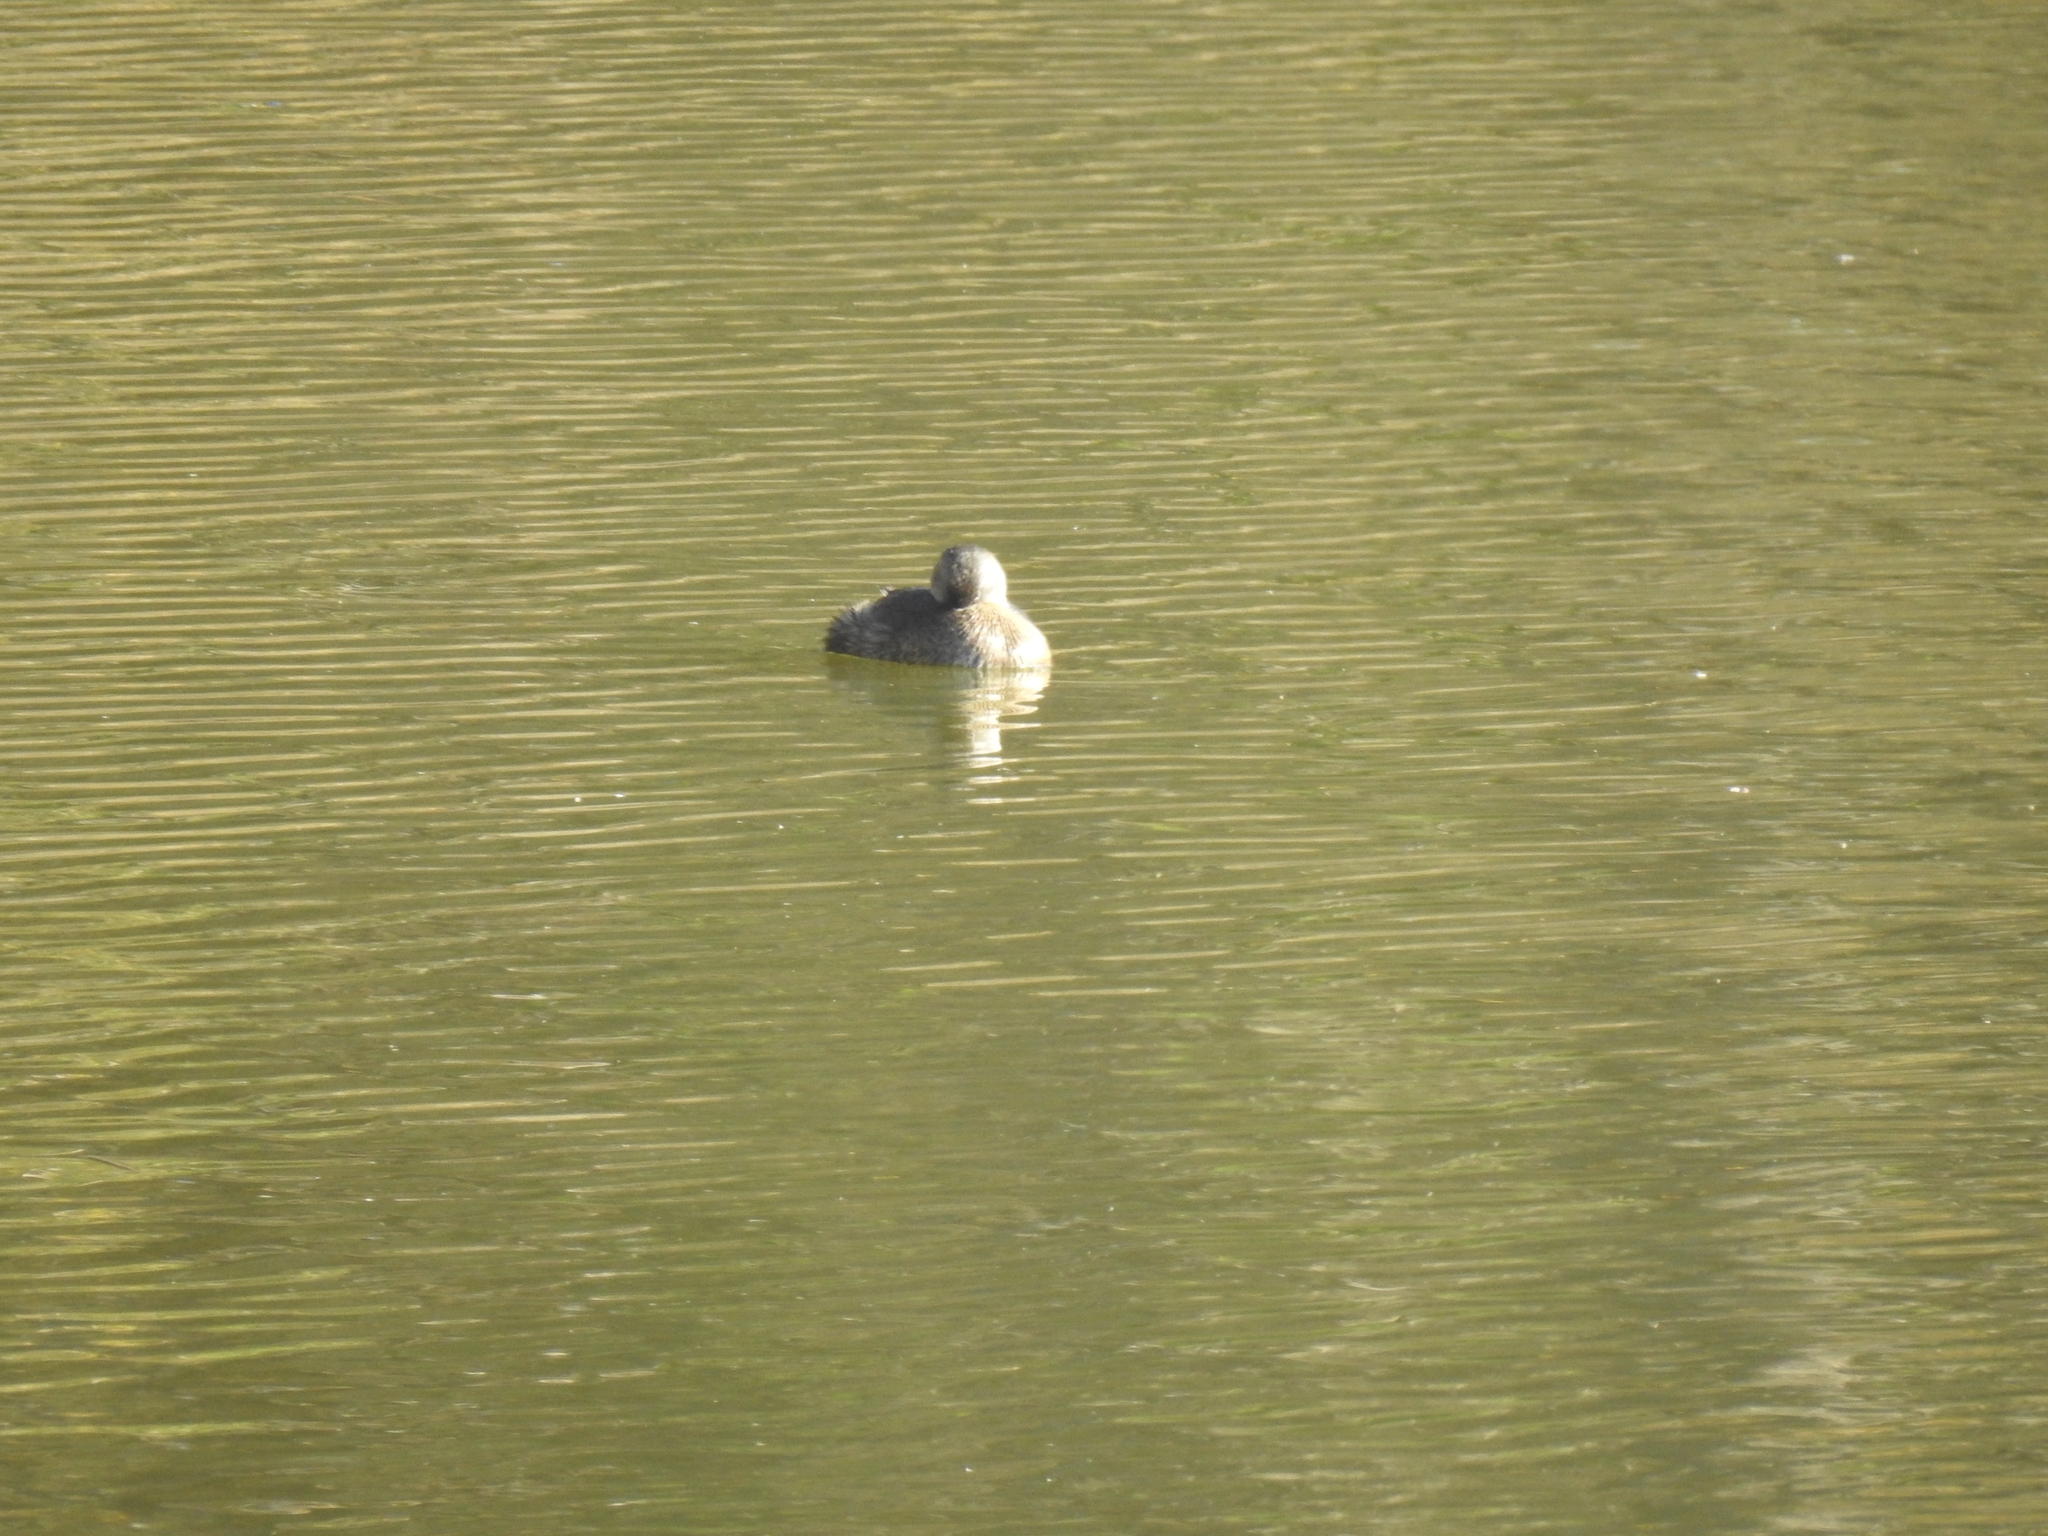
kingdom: Animalia
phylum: Chordata
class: Aves
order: Podicipediformes
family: Podicipedidae
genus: Podilymbus
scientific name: Podilymbus podiceps
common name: Pied-billed grebe
